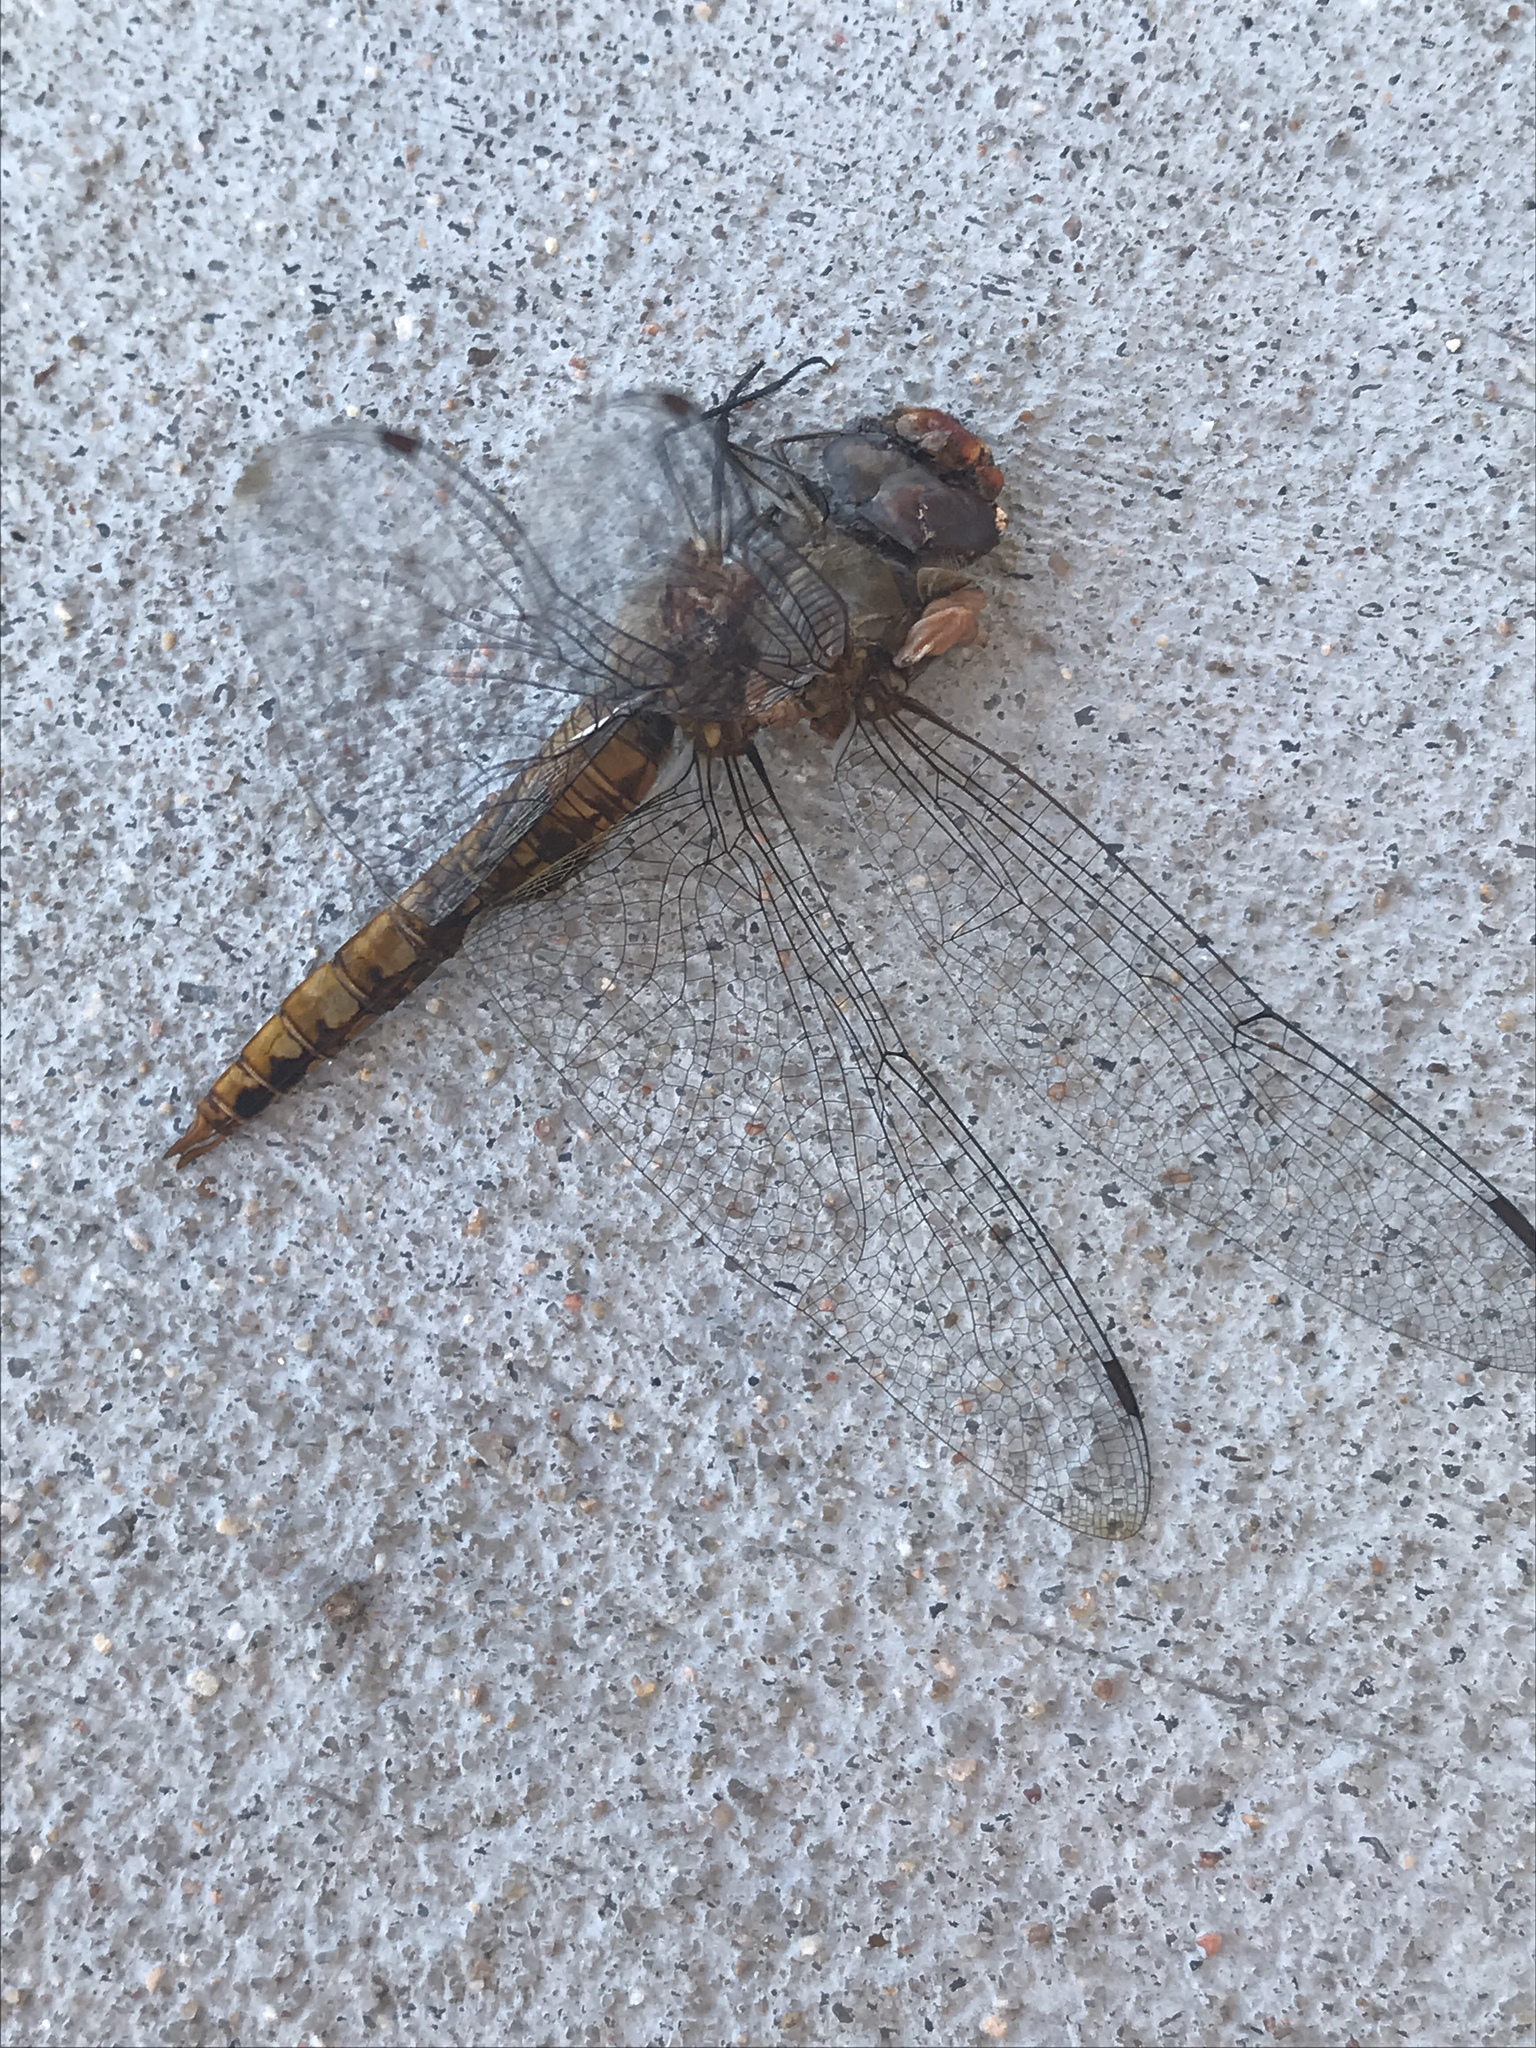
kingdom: Animalia
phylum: Arthropoda
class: Insecta
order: Odonata
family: Libellulidae
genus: Pantala
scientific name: Pantala hymenaea
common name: Spot-winged glider
